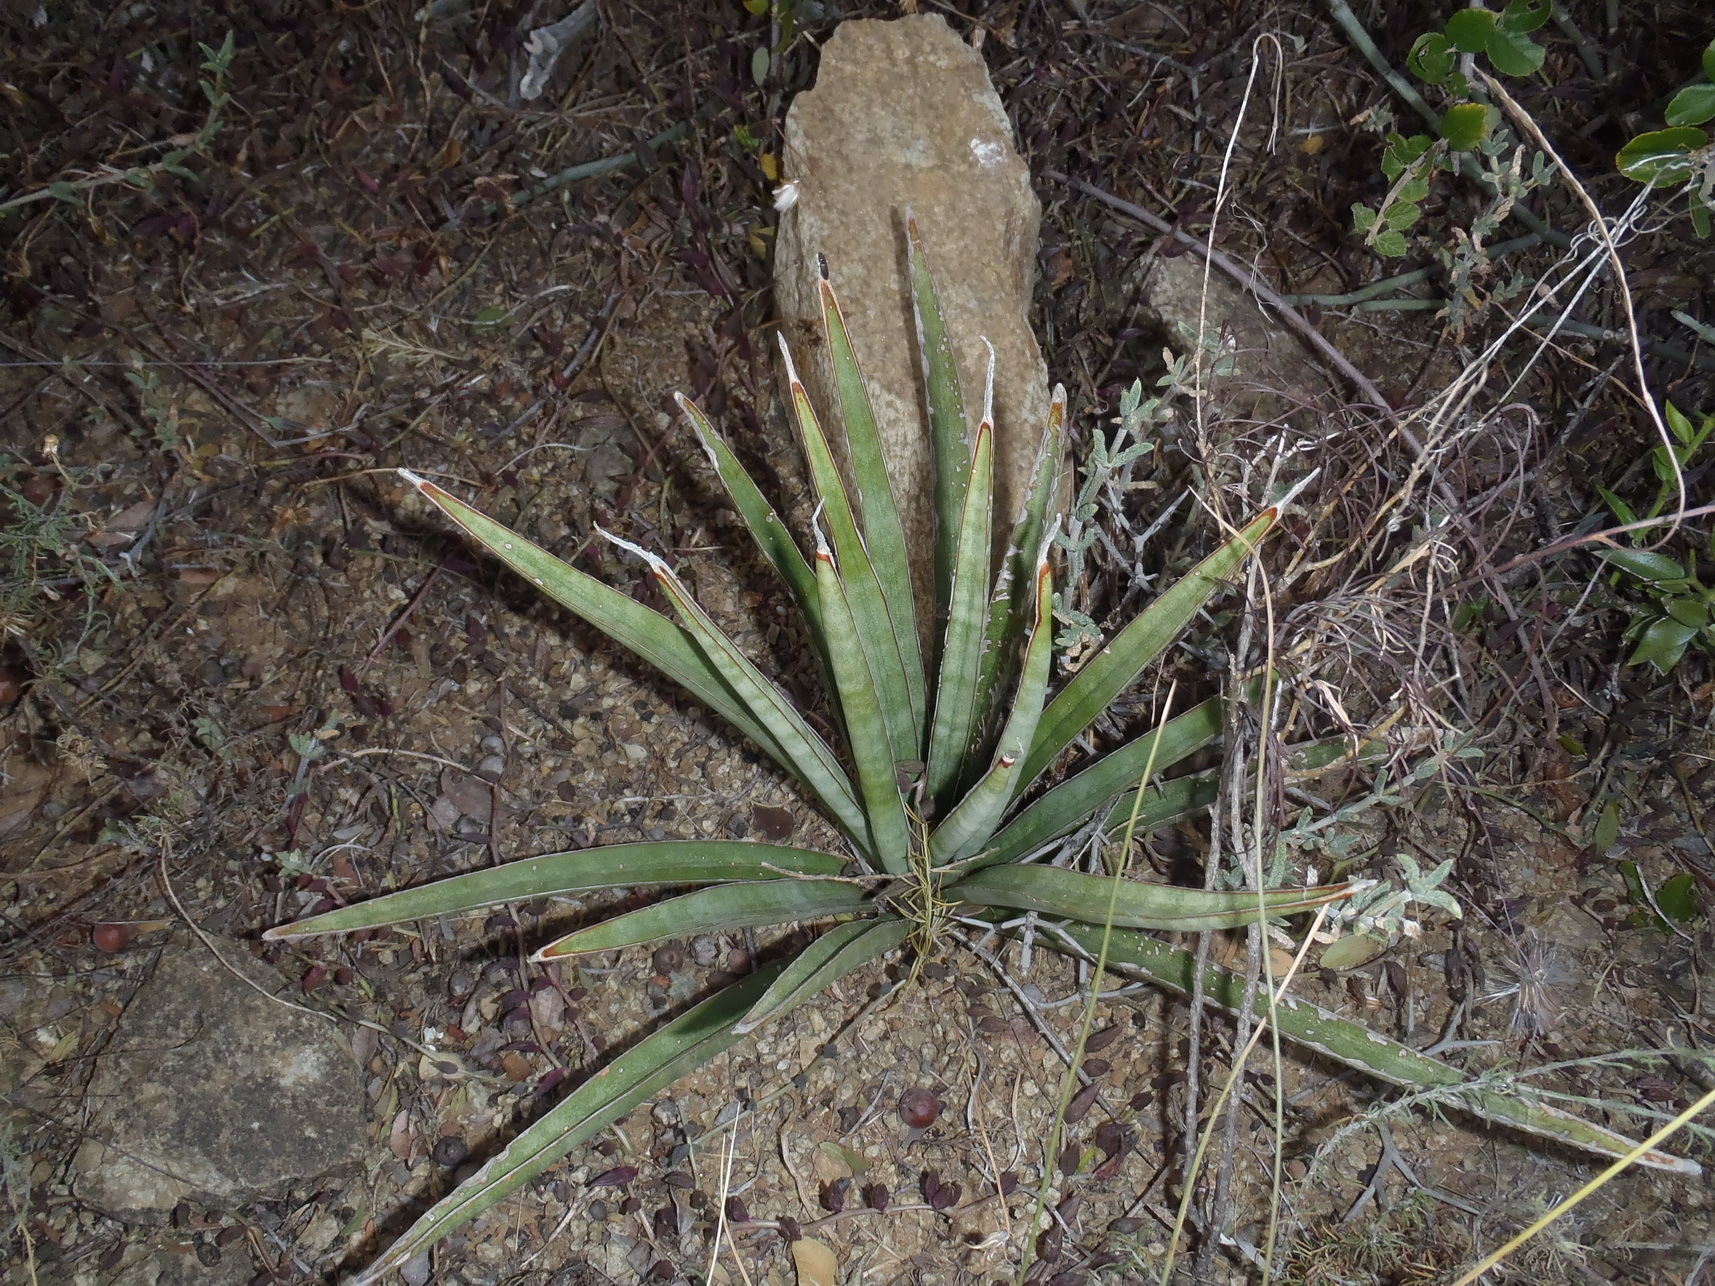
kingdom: Plantae
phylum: Tracheophyta
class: Liliopsida
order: Asparagales
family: Asparagaceae
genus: Dracaena
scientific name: Dracaena aethiopica
